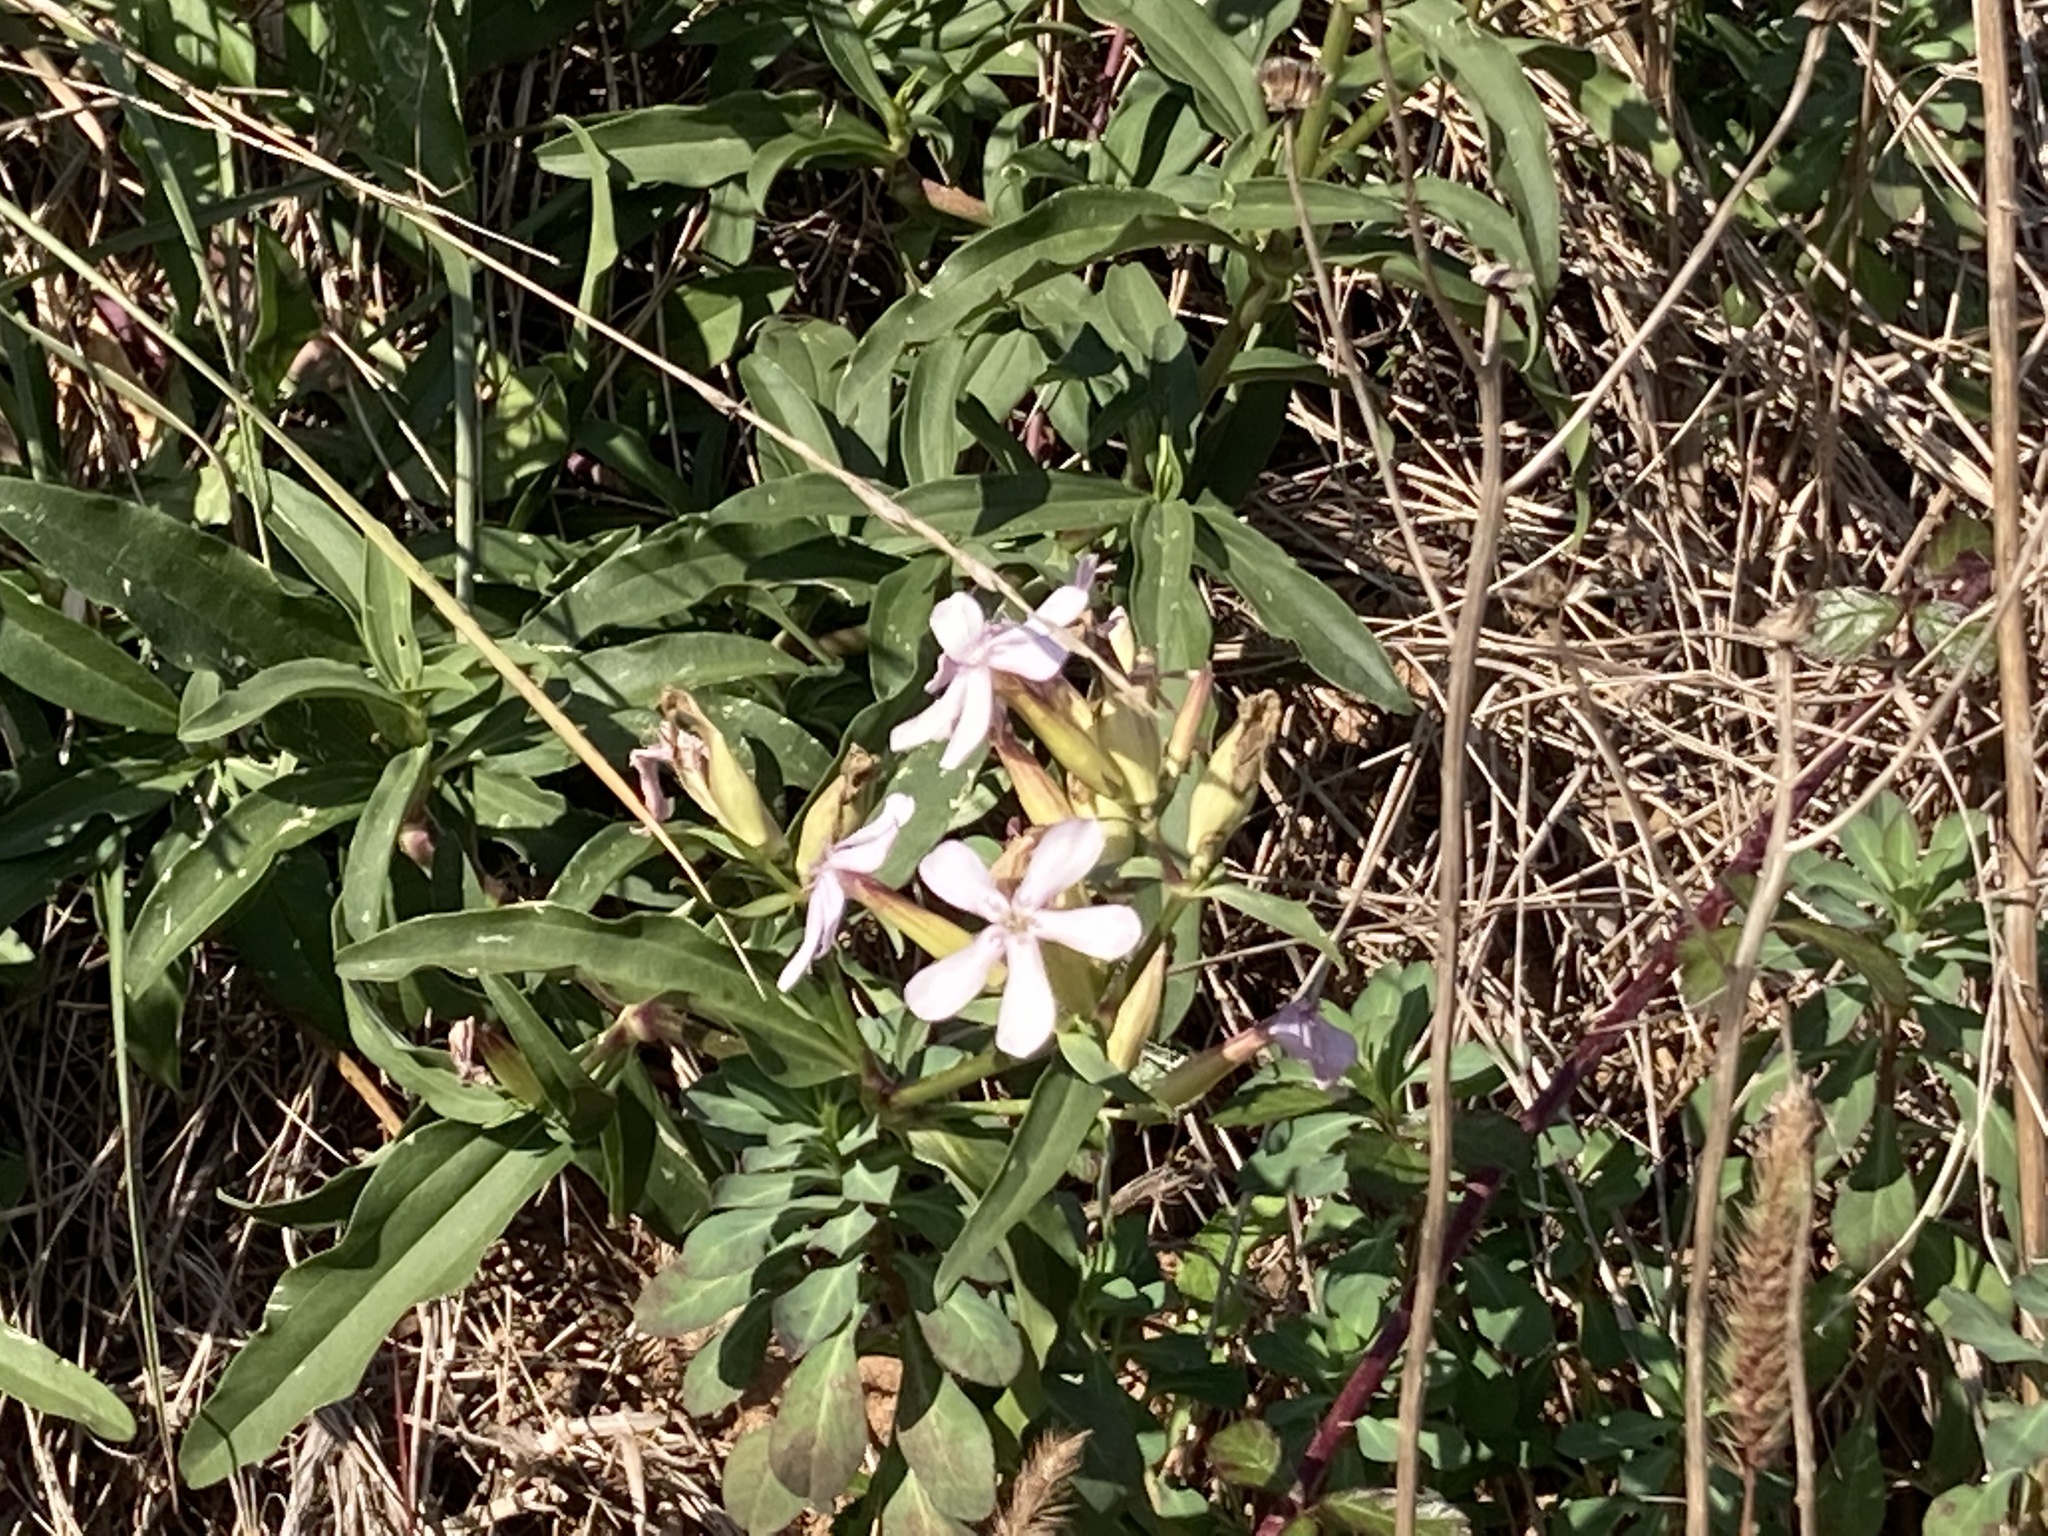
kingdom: Plantae
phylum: Tracheophyta
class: Magnoliopsida
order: Caryophyllales
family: Caryophyllaceae
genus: Saponaria
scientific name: Saponaria officinalis
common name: Soapwort
